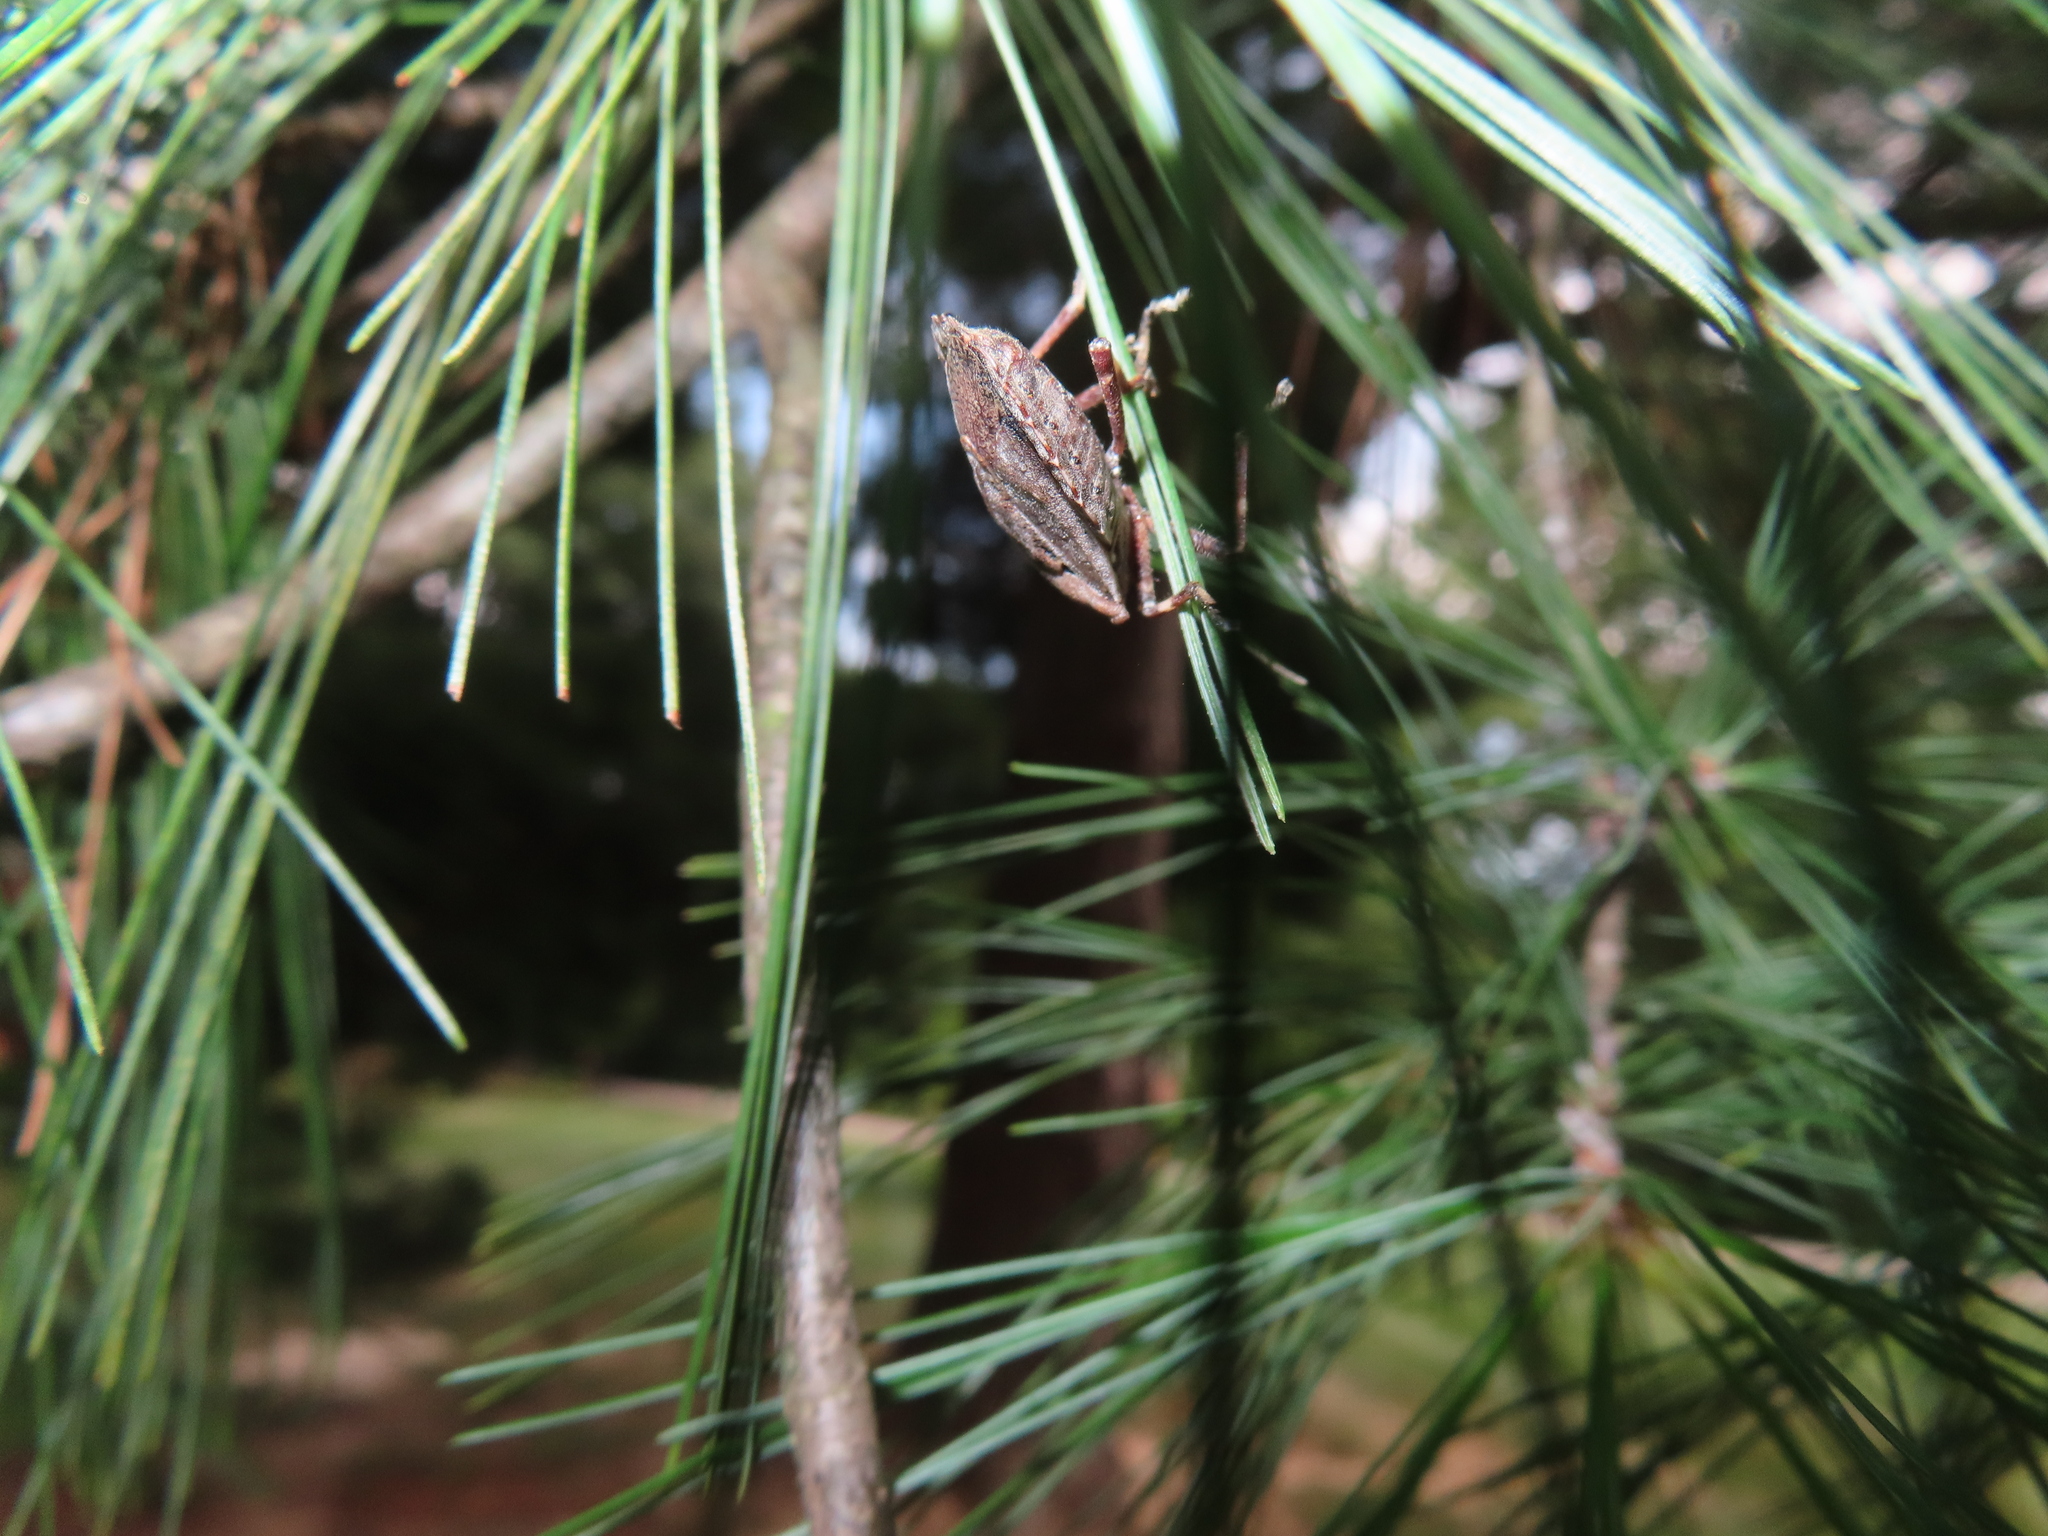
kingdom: Animalia
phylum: Arthropoda
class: Insecta
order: Hemiptera
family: Pentatomidae
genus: Halyomorpha
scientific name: Halyomorpha halys
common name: Brown marmorated stink bug
